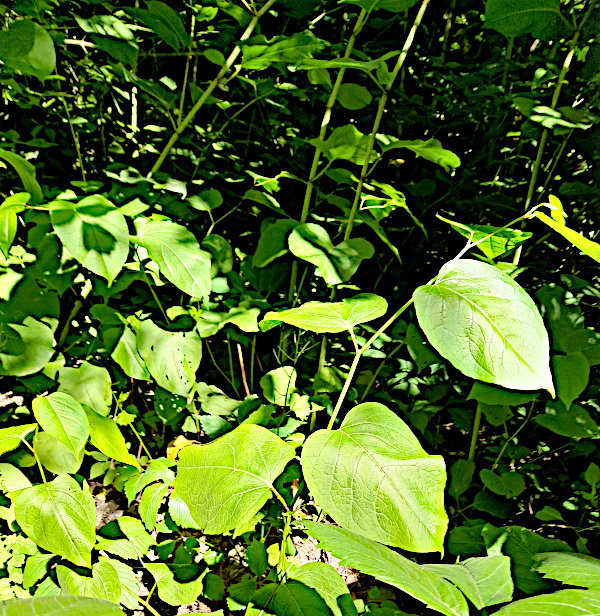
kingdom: Plantae
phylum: Tracheophyta
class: Magnoliopsida
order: Caryophyllales
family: Polygonaceae
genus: Reynoutria
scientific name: Reynoutria bohemica
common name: Bohemian knotweed
